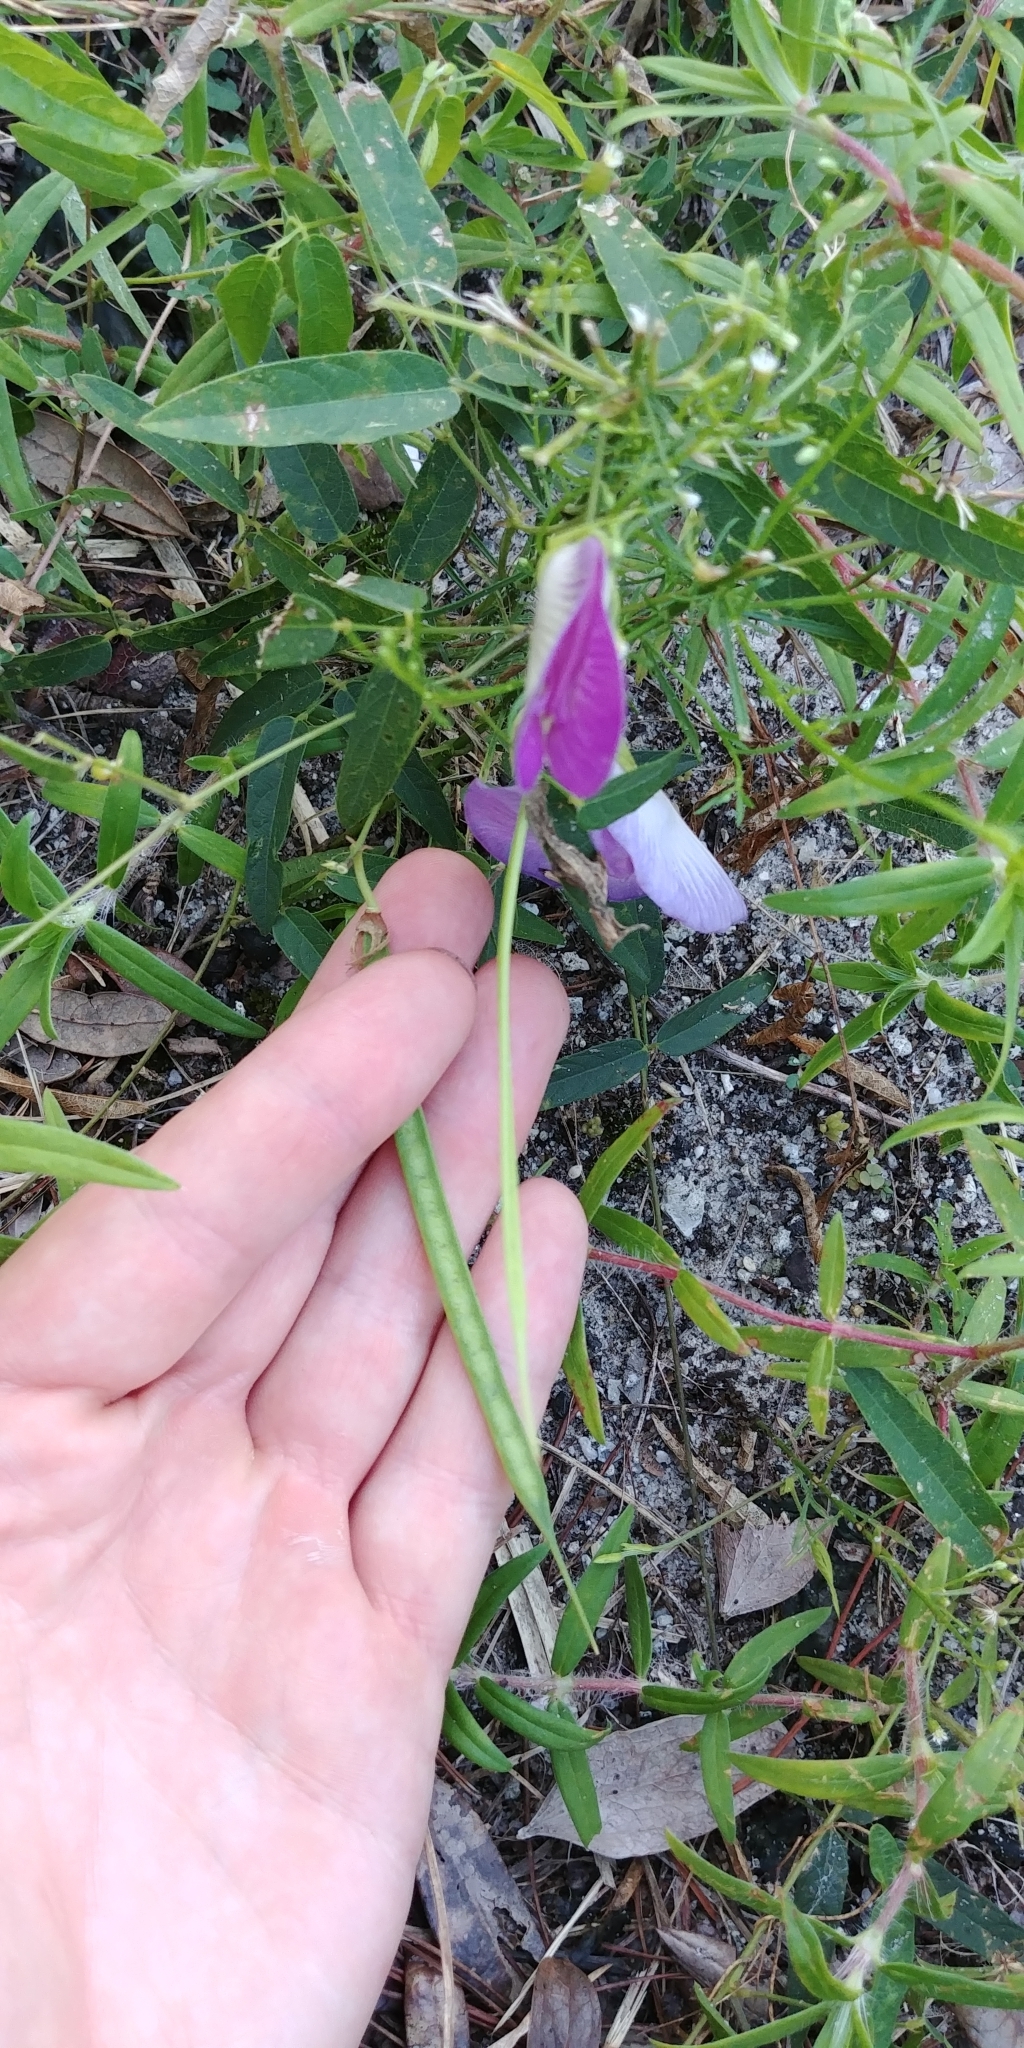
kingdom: Plantae
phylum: Tracheophyta
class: Magnoliopsida
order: Fabales
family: Fabaceae
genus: Centrosema
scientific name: Centrosema virginianum
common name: Butterfly-pea
